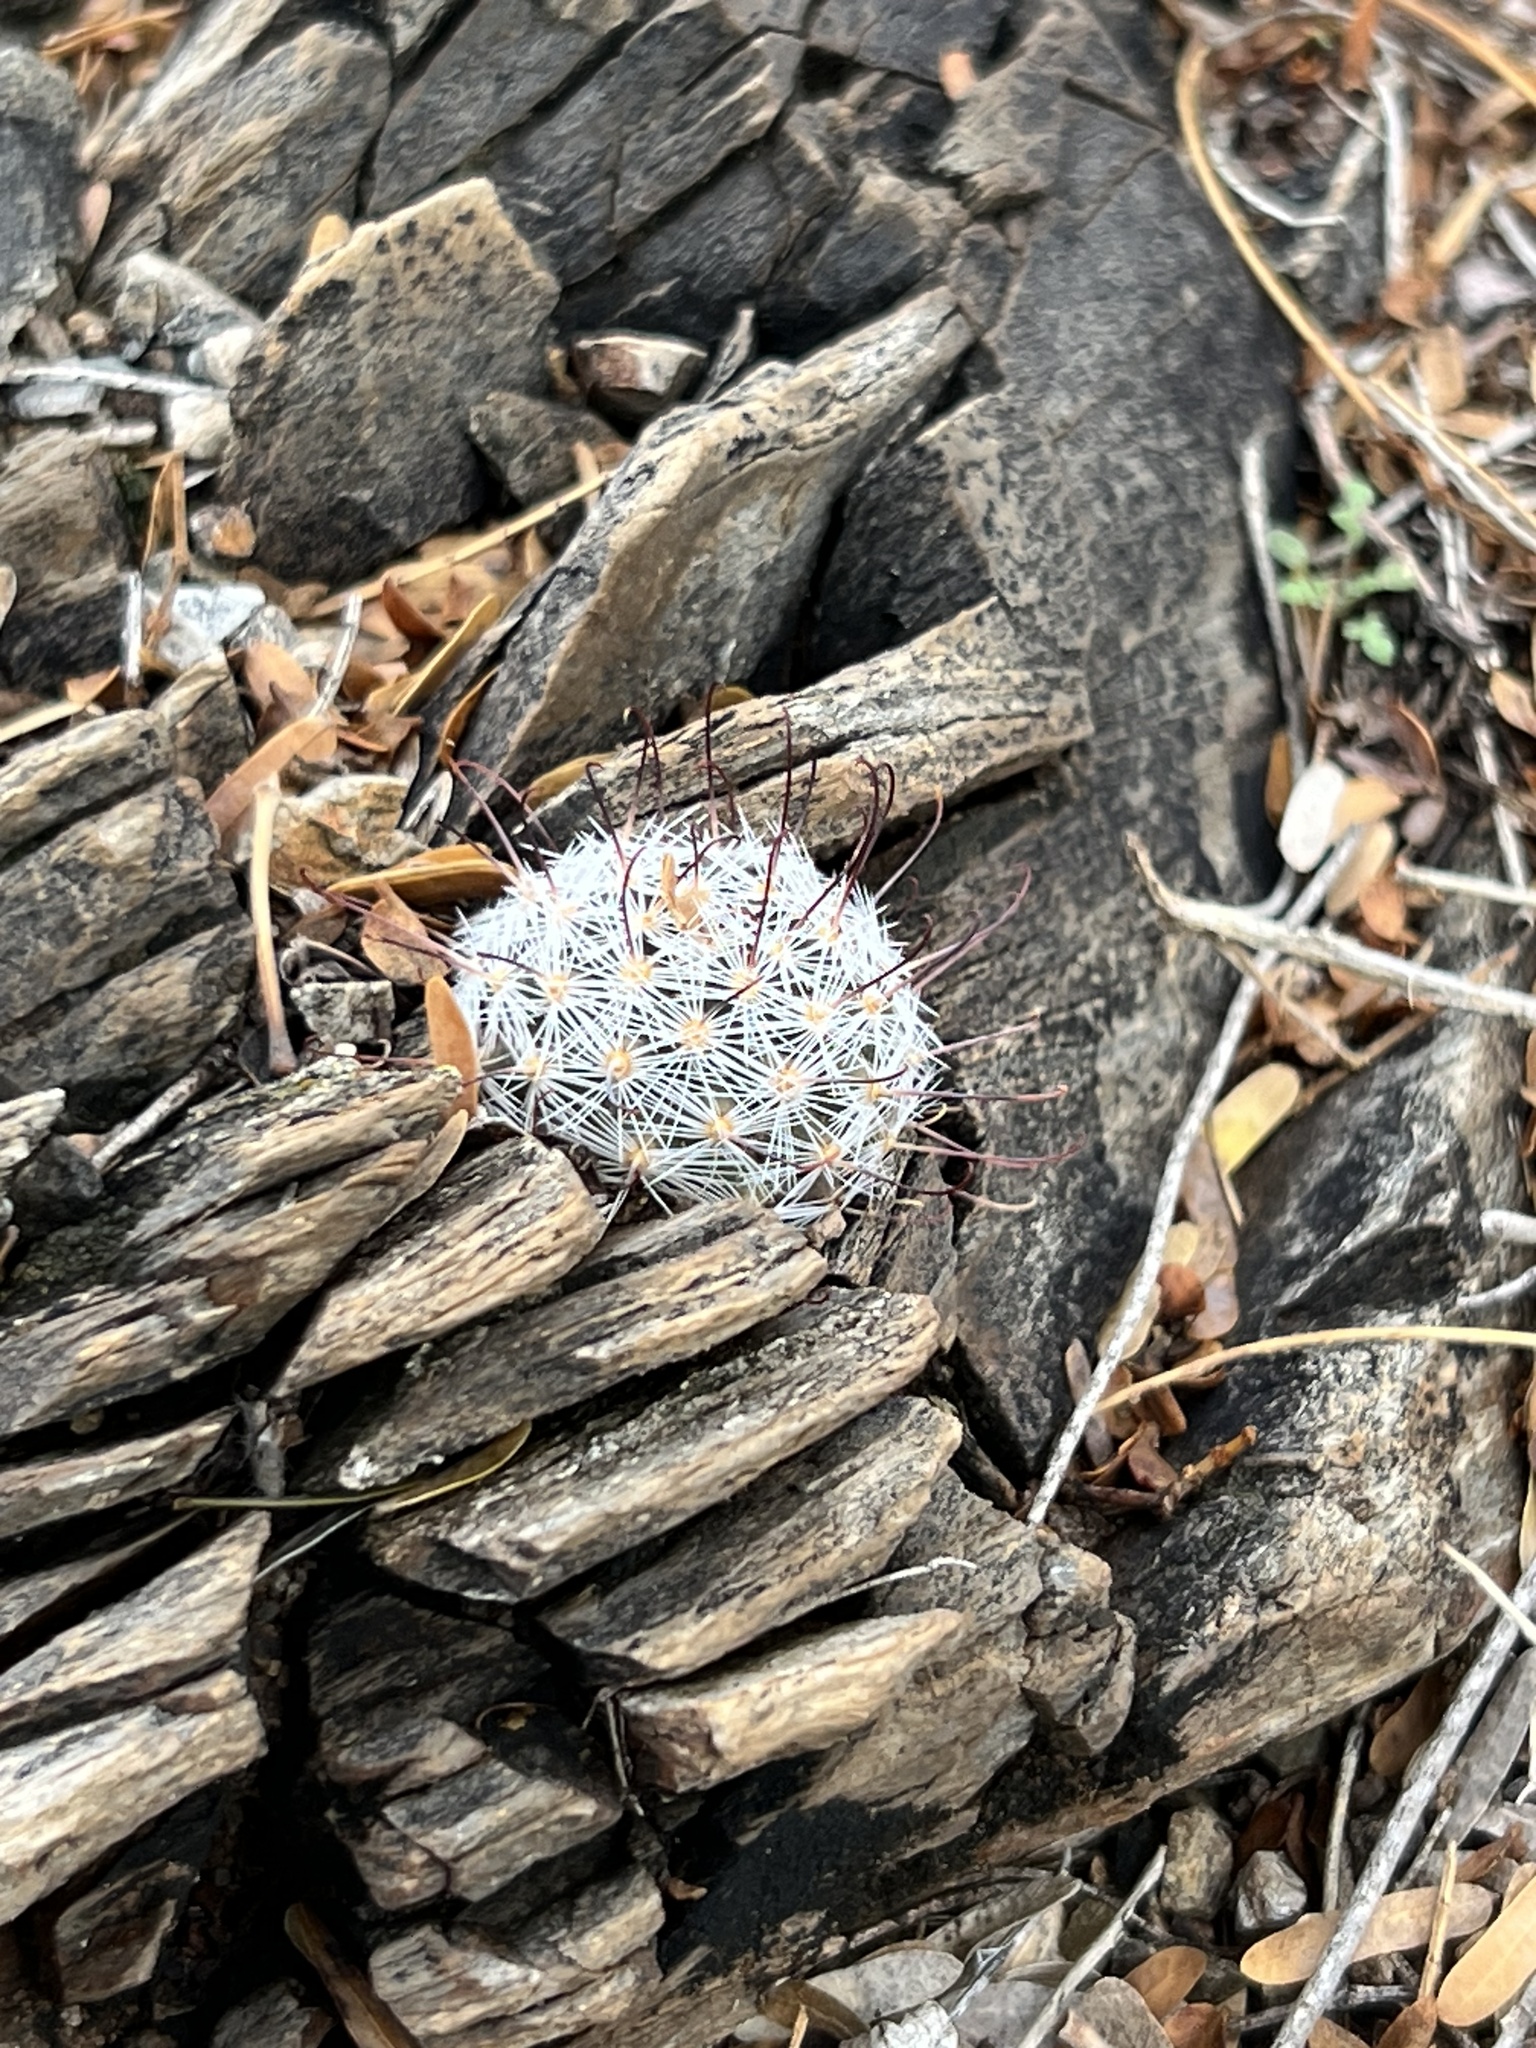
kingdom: Plantae
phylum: Tracheophyta
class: Magnoliopsida
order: Caryophyllales
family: Cactaceae
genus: Cochemiea
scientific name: Cochemiea grahamii
